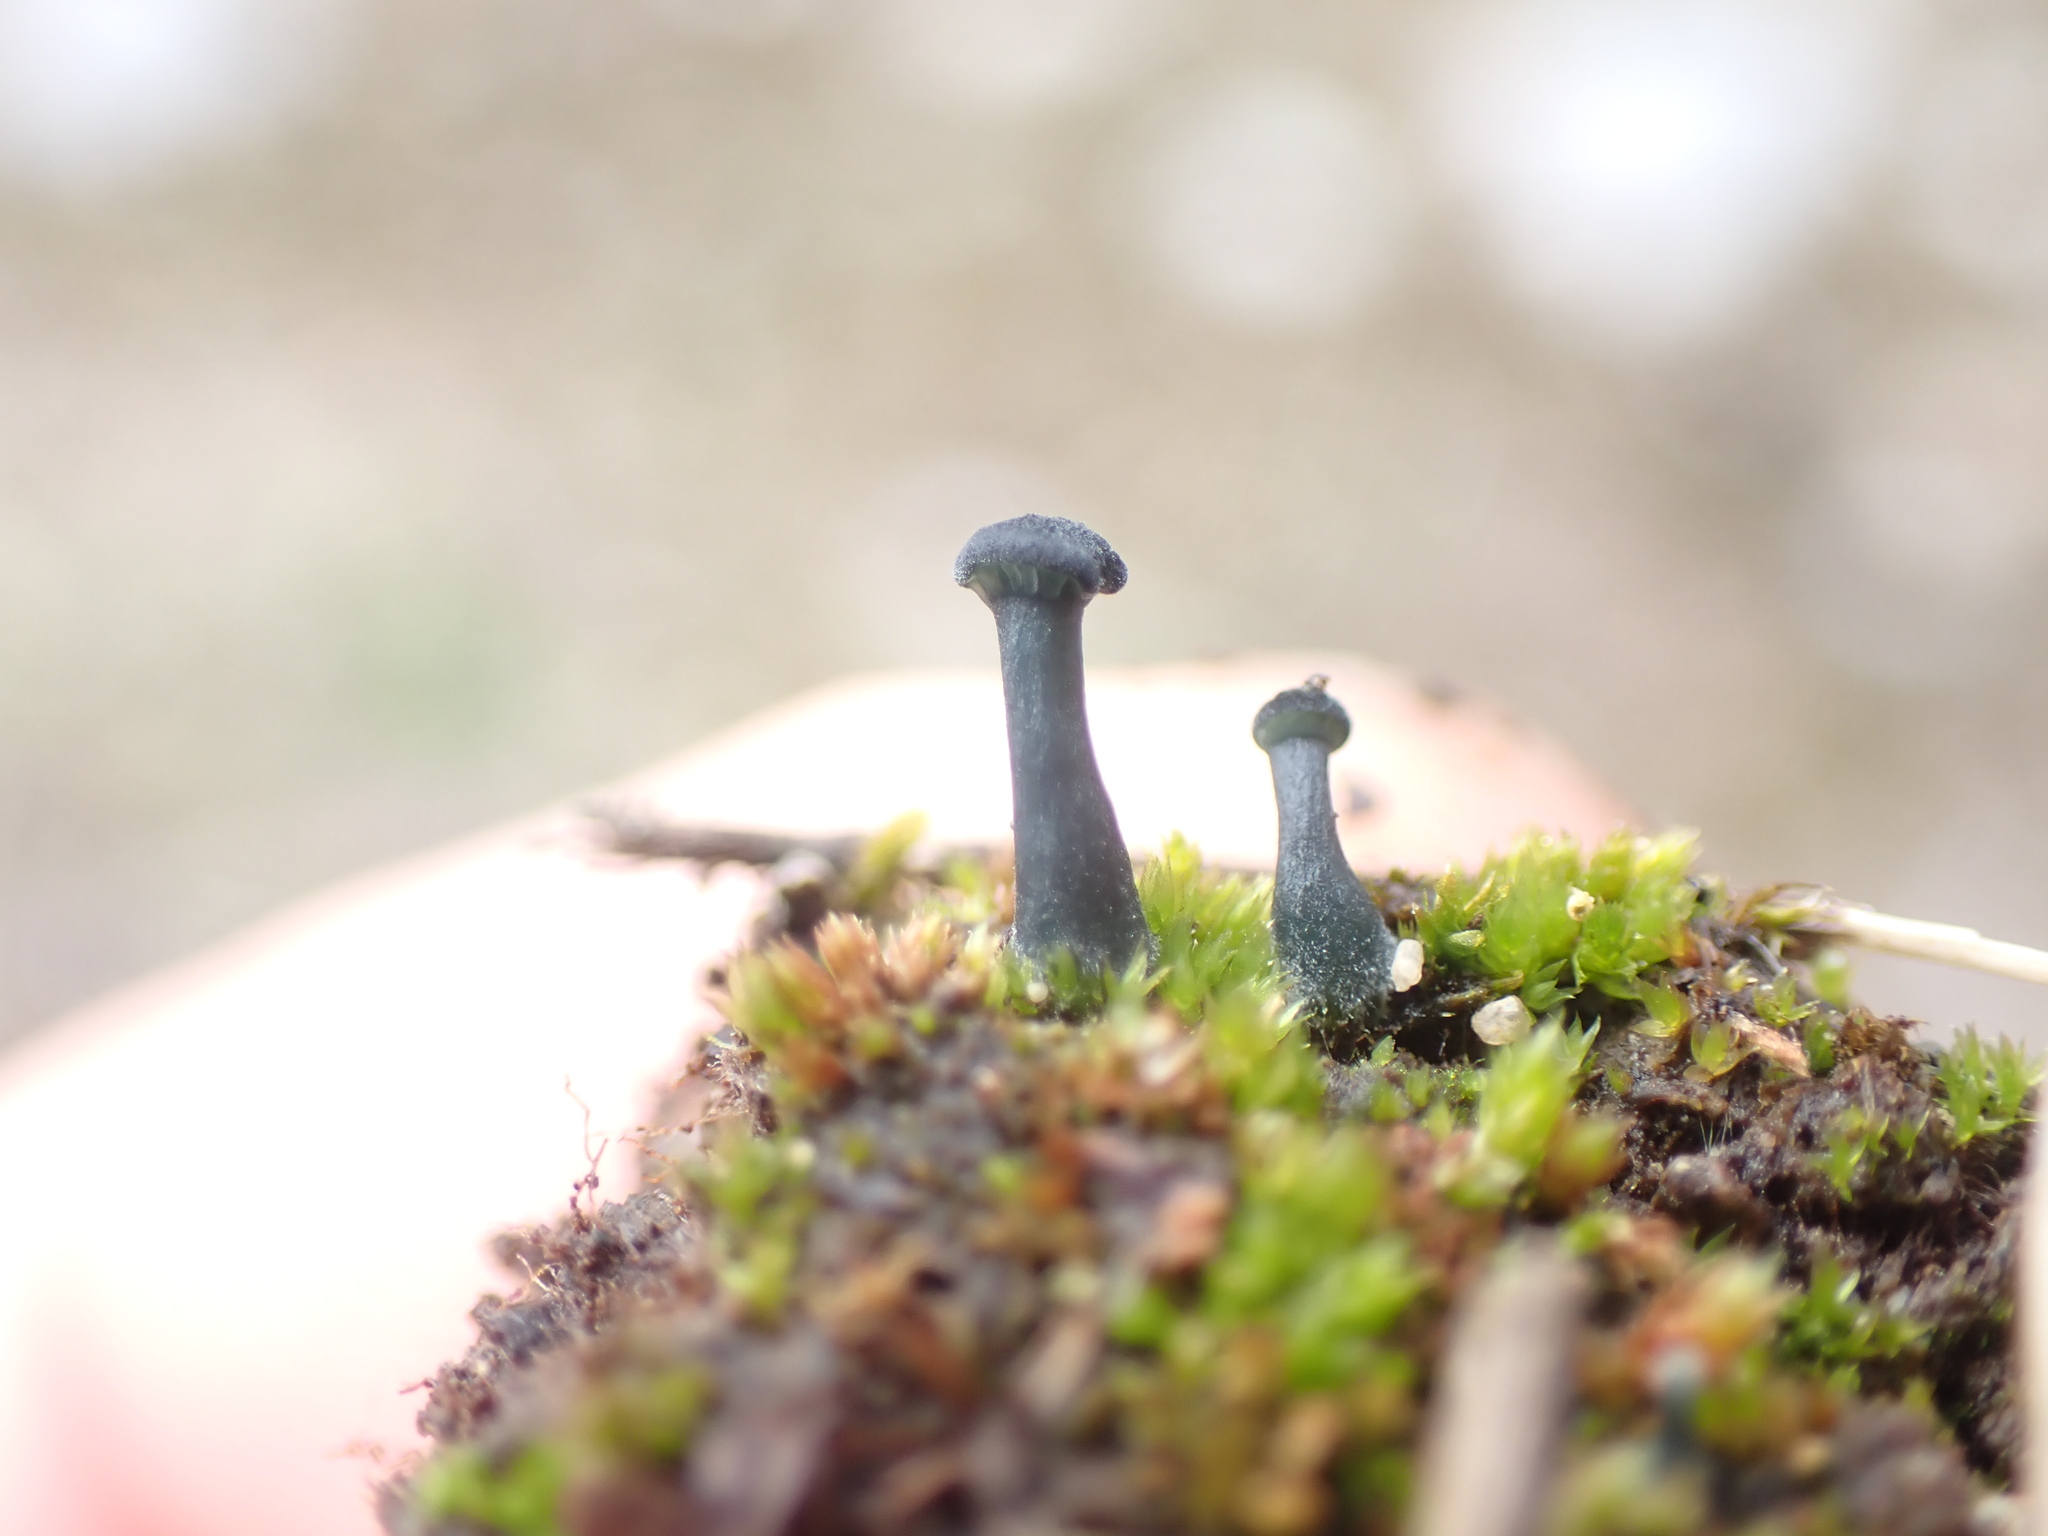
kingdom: Fungi
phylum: Basidiomycota
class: Agaricomycetes
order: Agaricales
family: Hygrophoraceae
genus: Arrhenia
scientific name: Arrhenia chlorocyanea
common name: Verdigris navel
